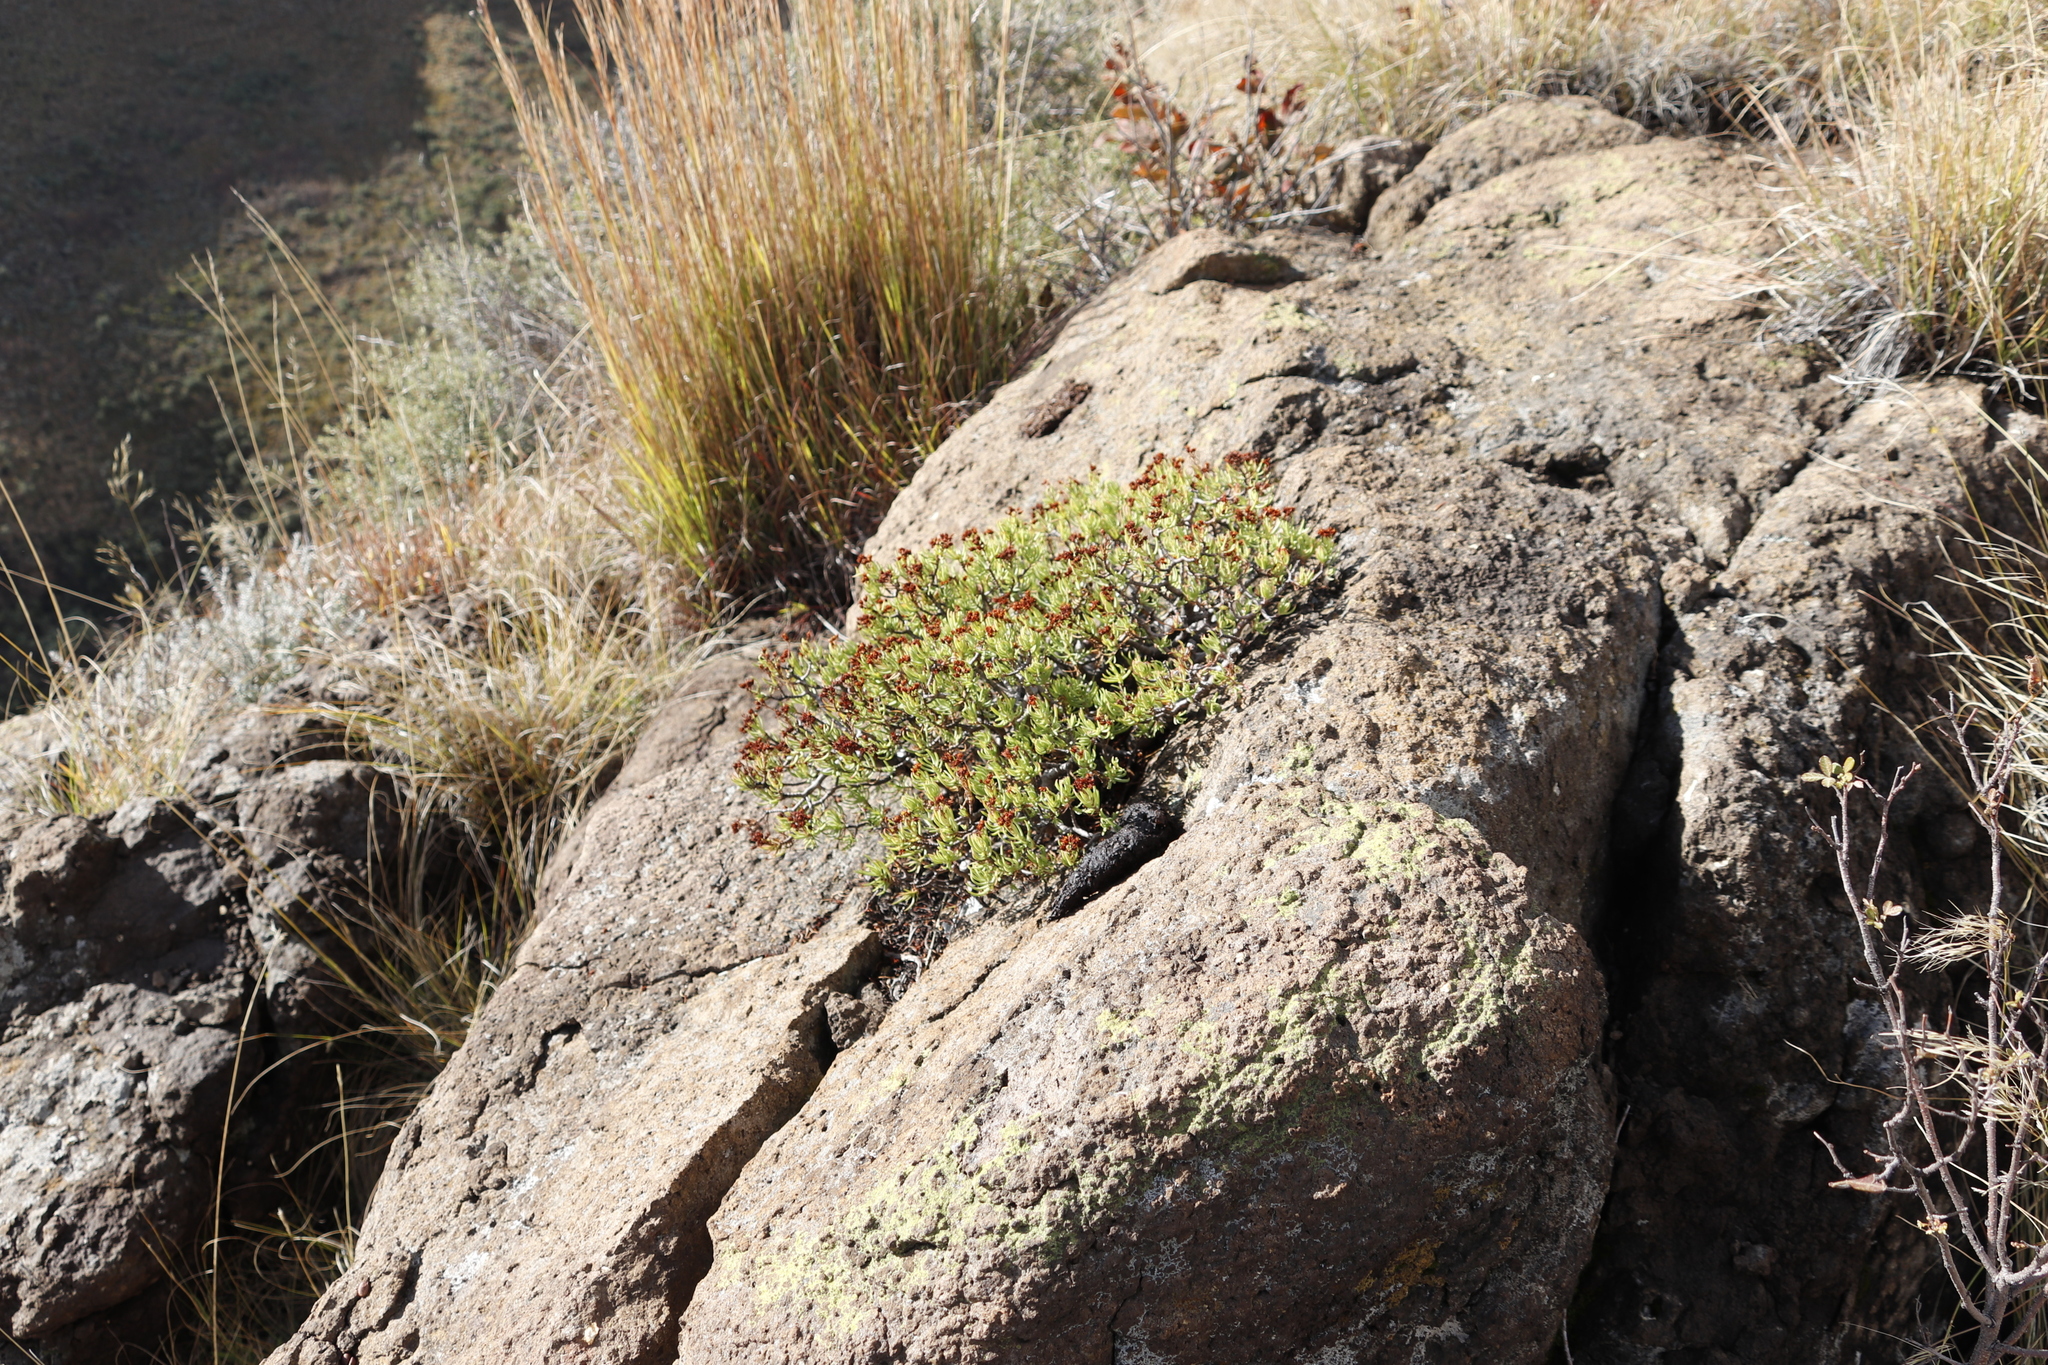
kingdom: Plantae
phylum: Tracheophyta
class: Magnoliopsida
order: Saxifragales
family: Crassulaceae
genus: Crassula
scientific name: Crassula sarcocaulis
